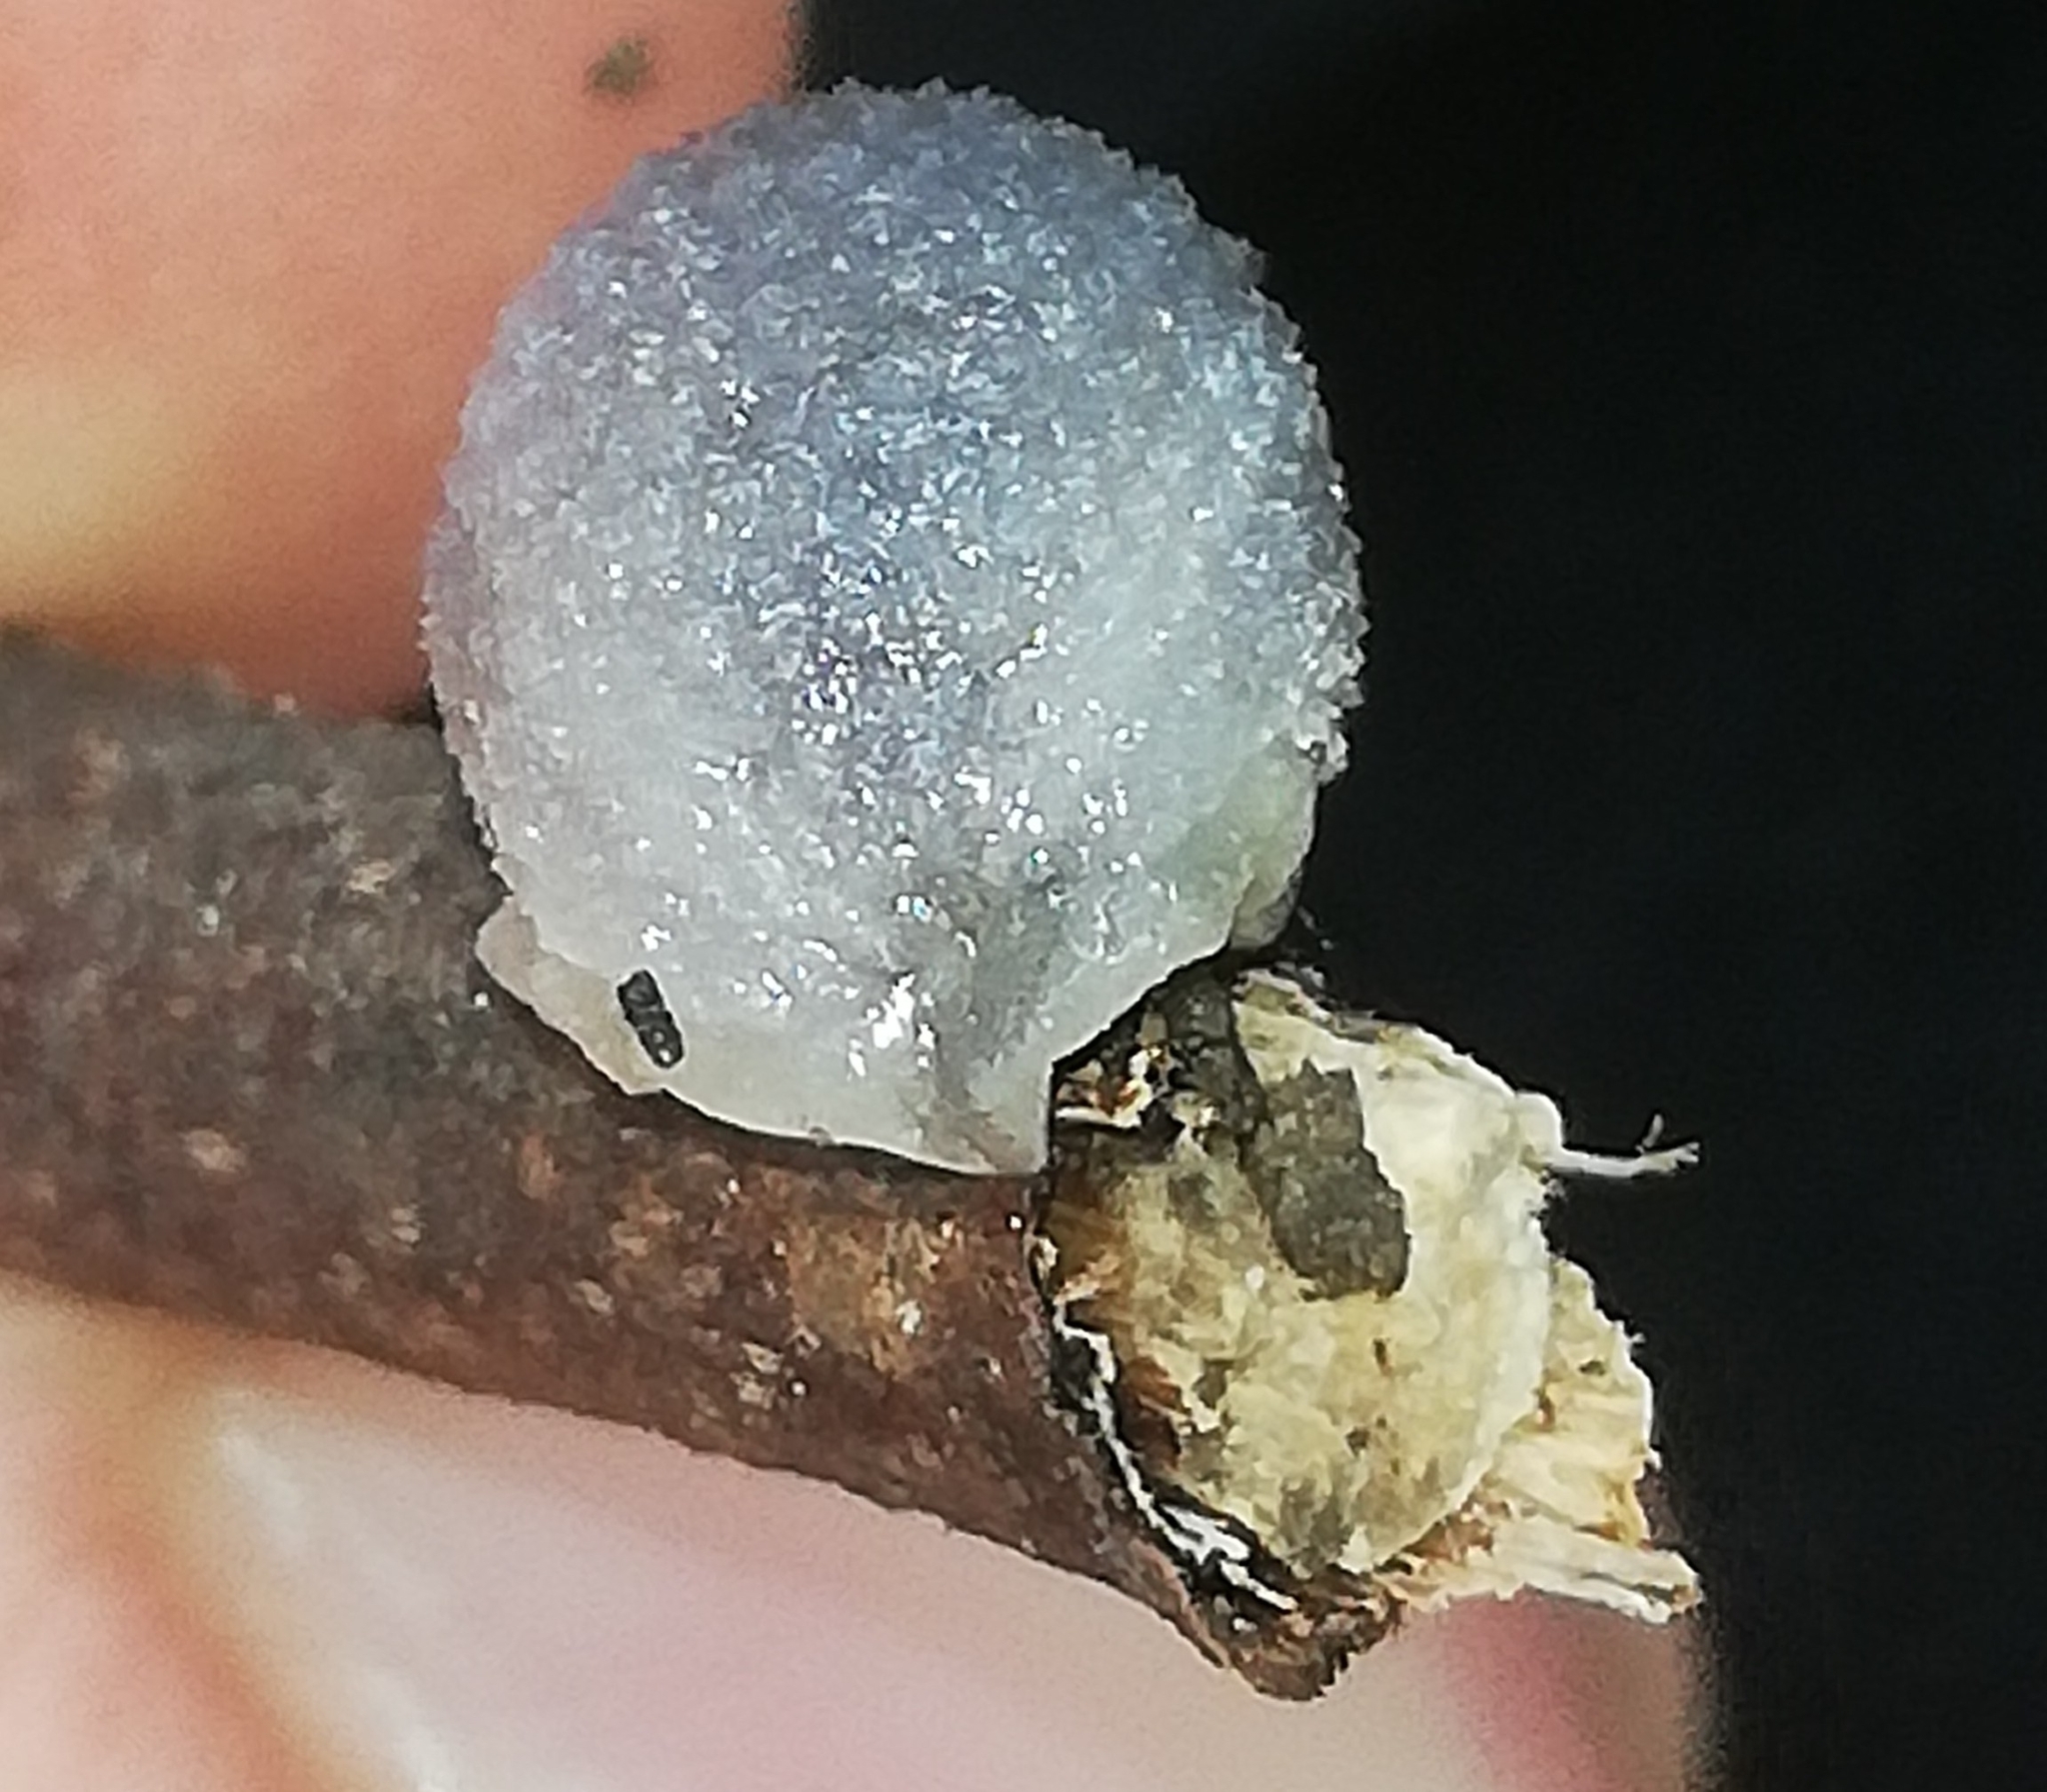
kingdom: Animalia
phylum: Mollusca
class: Gastropoda
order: Stylommatophora
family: Arionidae
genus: Arion
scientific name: Arion intermedius
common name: Hedgehog slug
